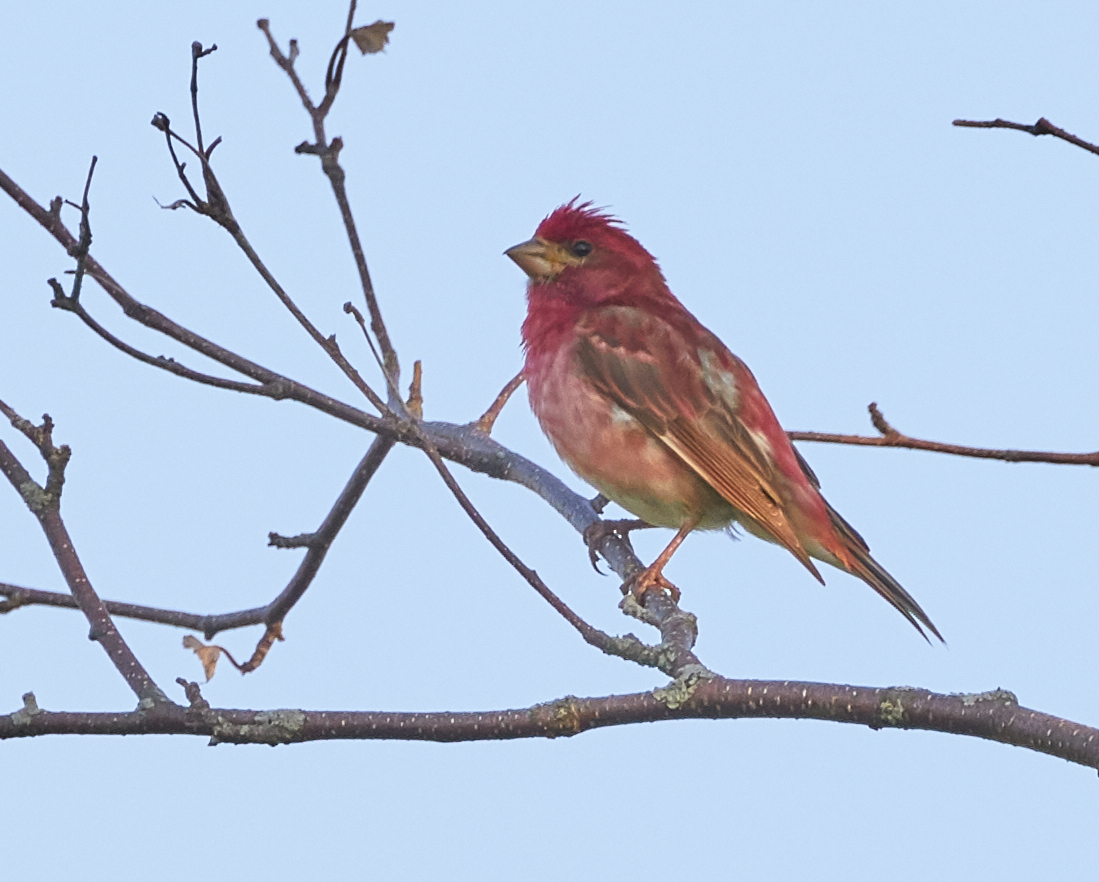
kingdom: Animalia
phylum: Chordata
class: Aves
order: Passeriformes
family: Fringillidae
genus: Haemorhous
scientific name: Haemorhous purpureus
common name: Purple finch
